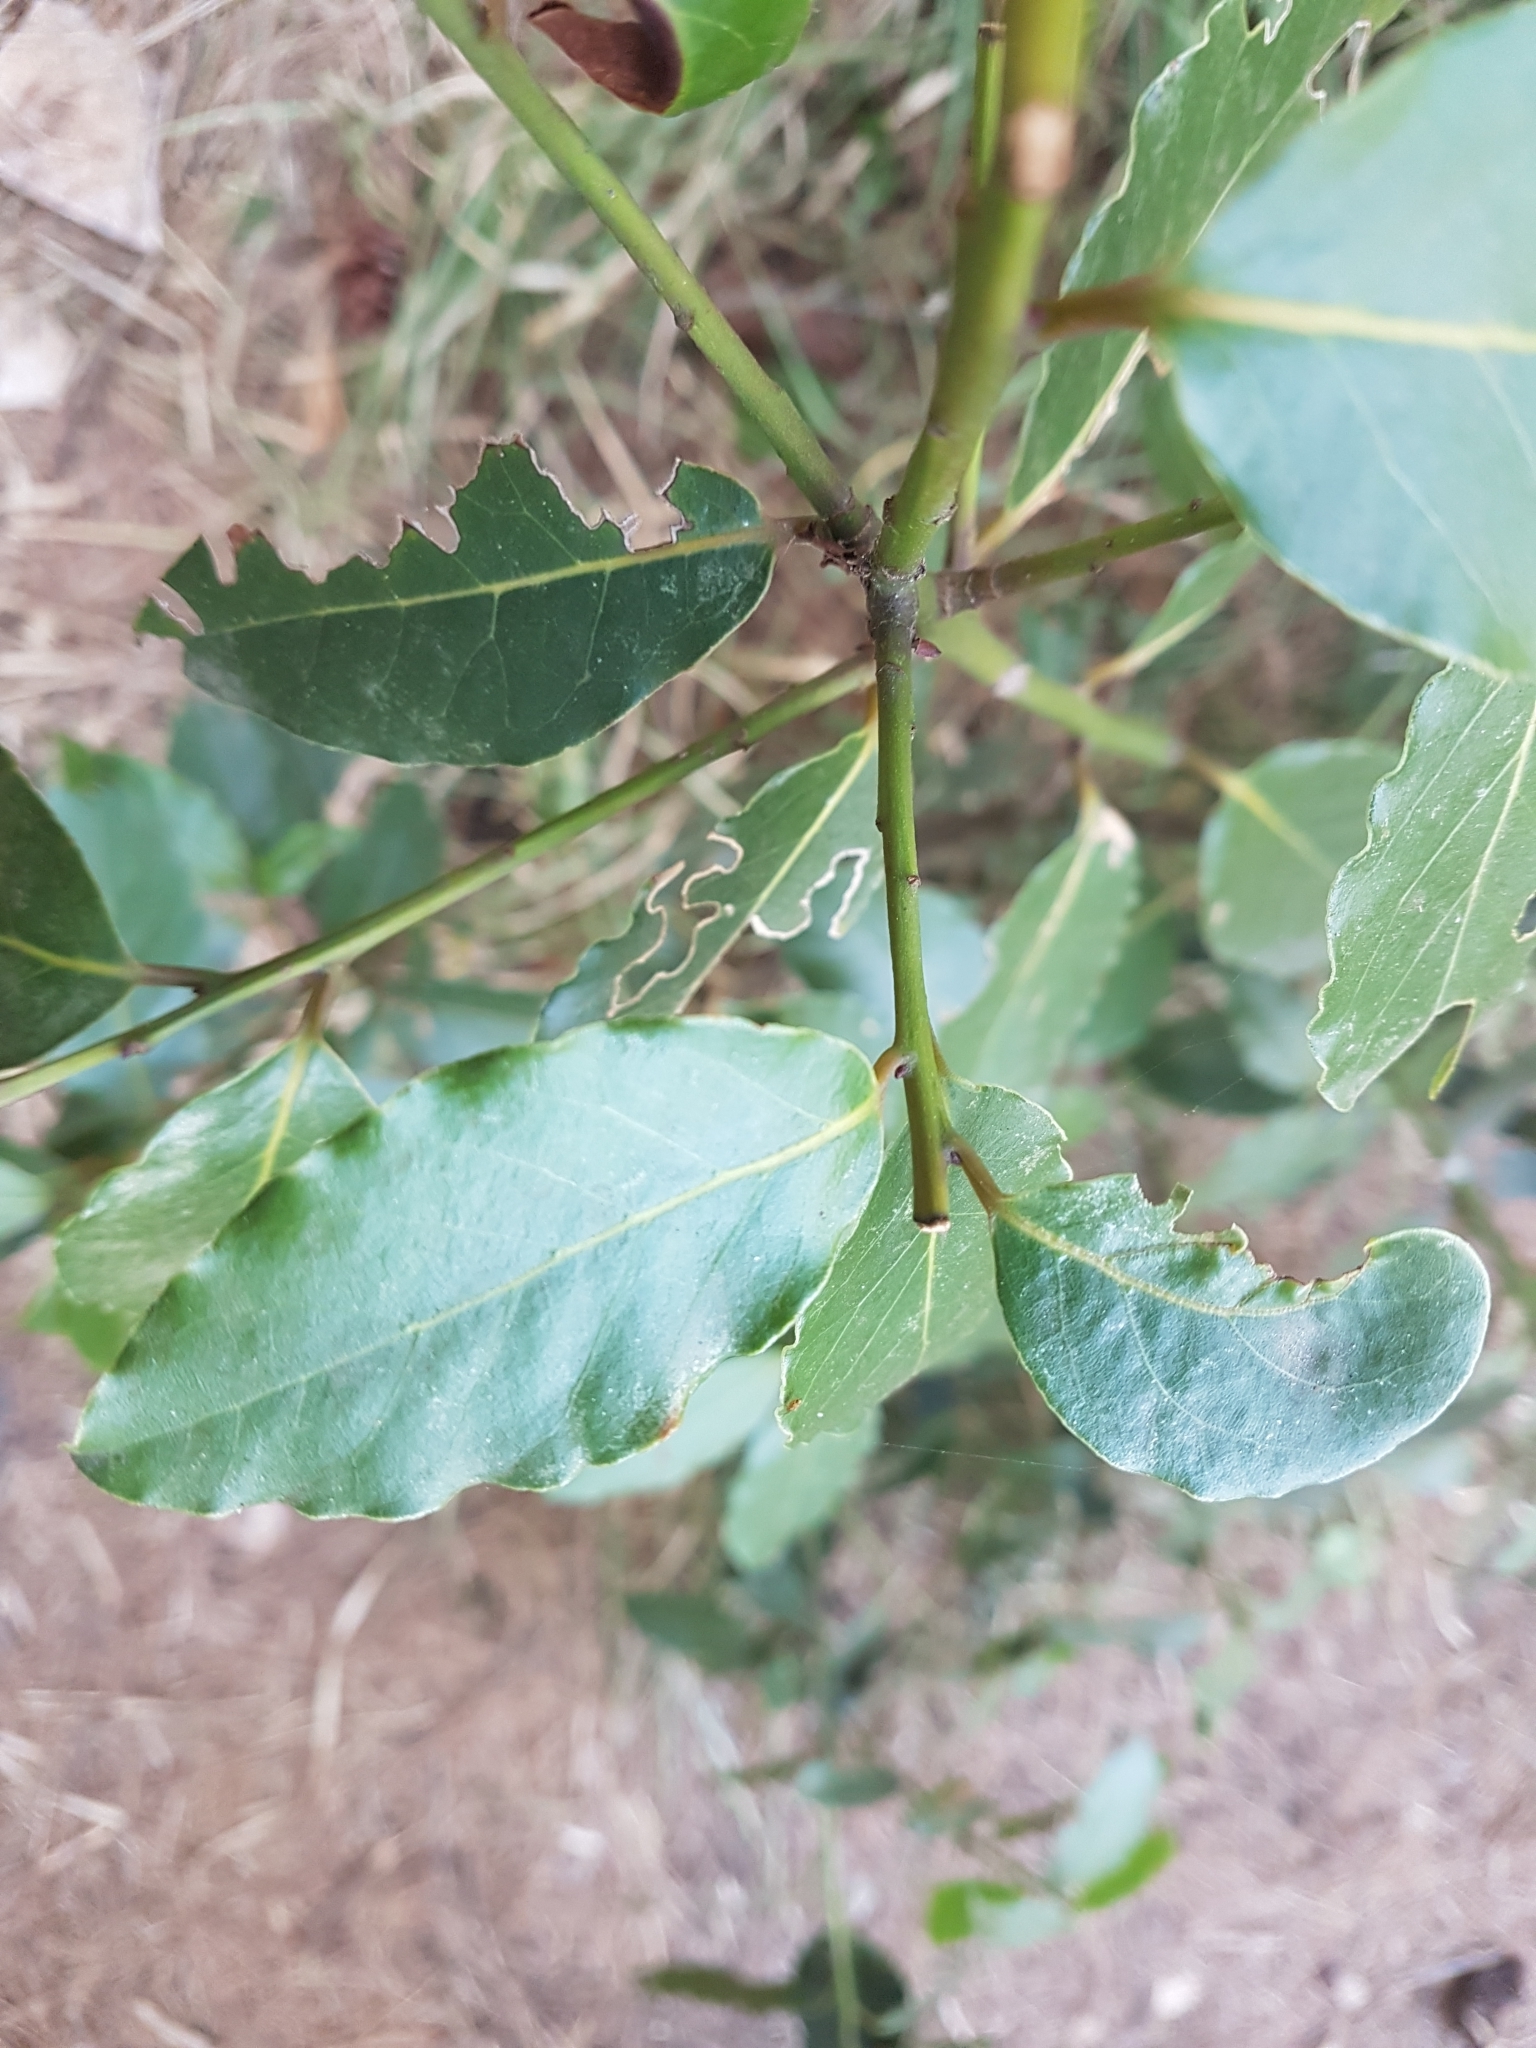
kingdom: Plantae
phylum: Tracheophyta
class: Magnoliopsida
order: Laurales
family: Lauraceae
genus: Laurus
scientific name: Laurus nobilis
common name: Bay
